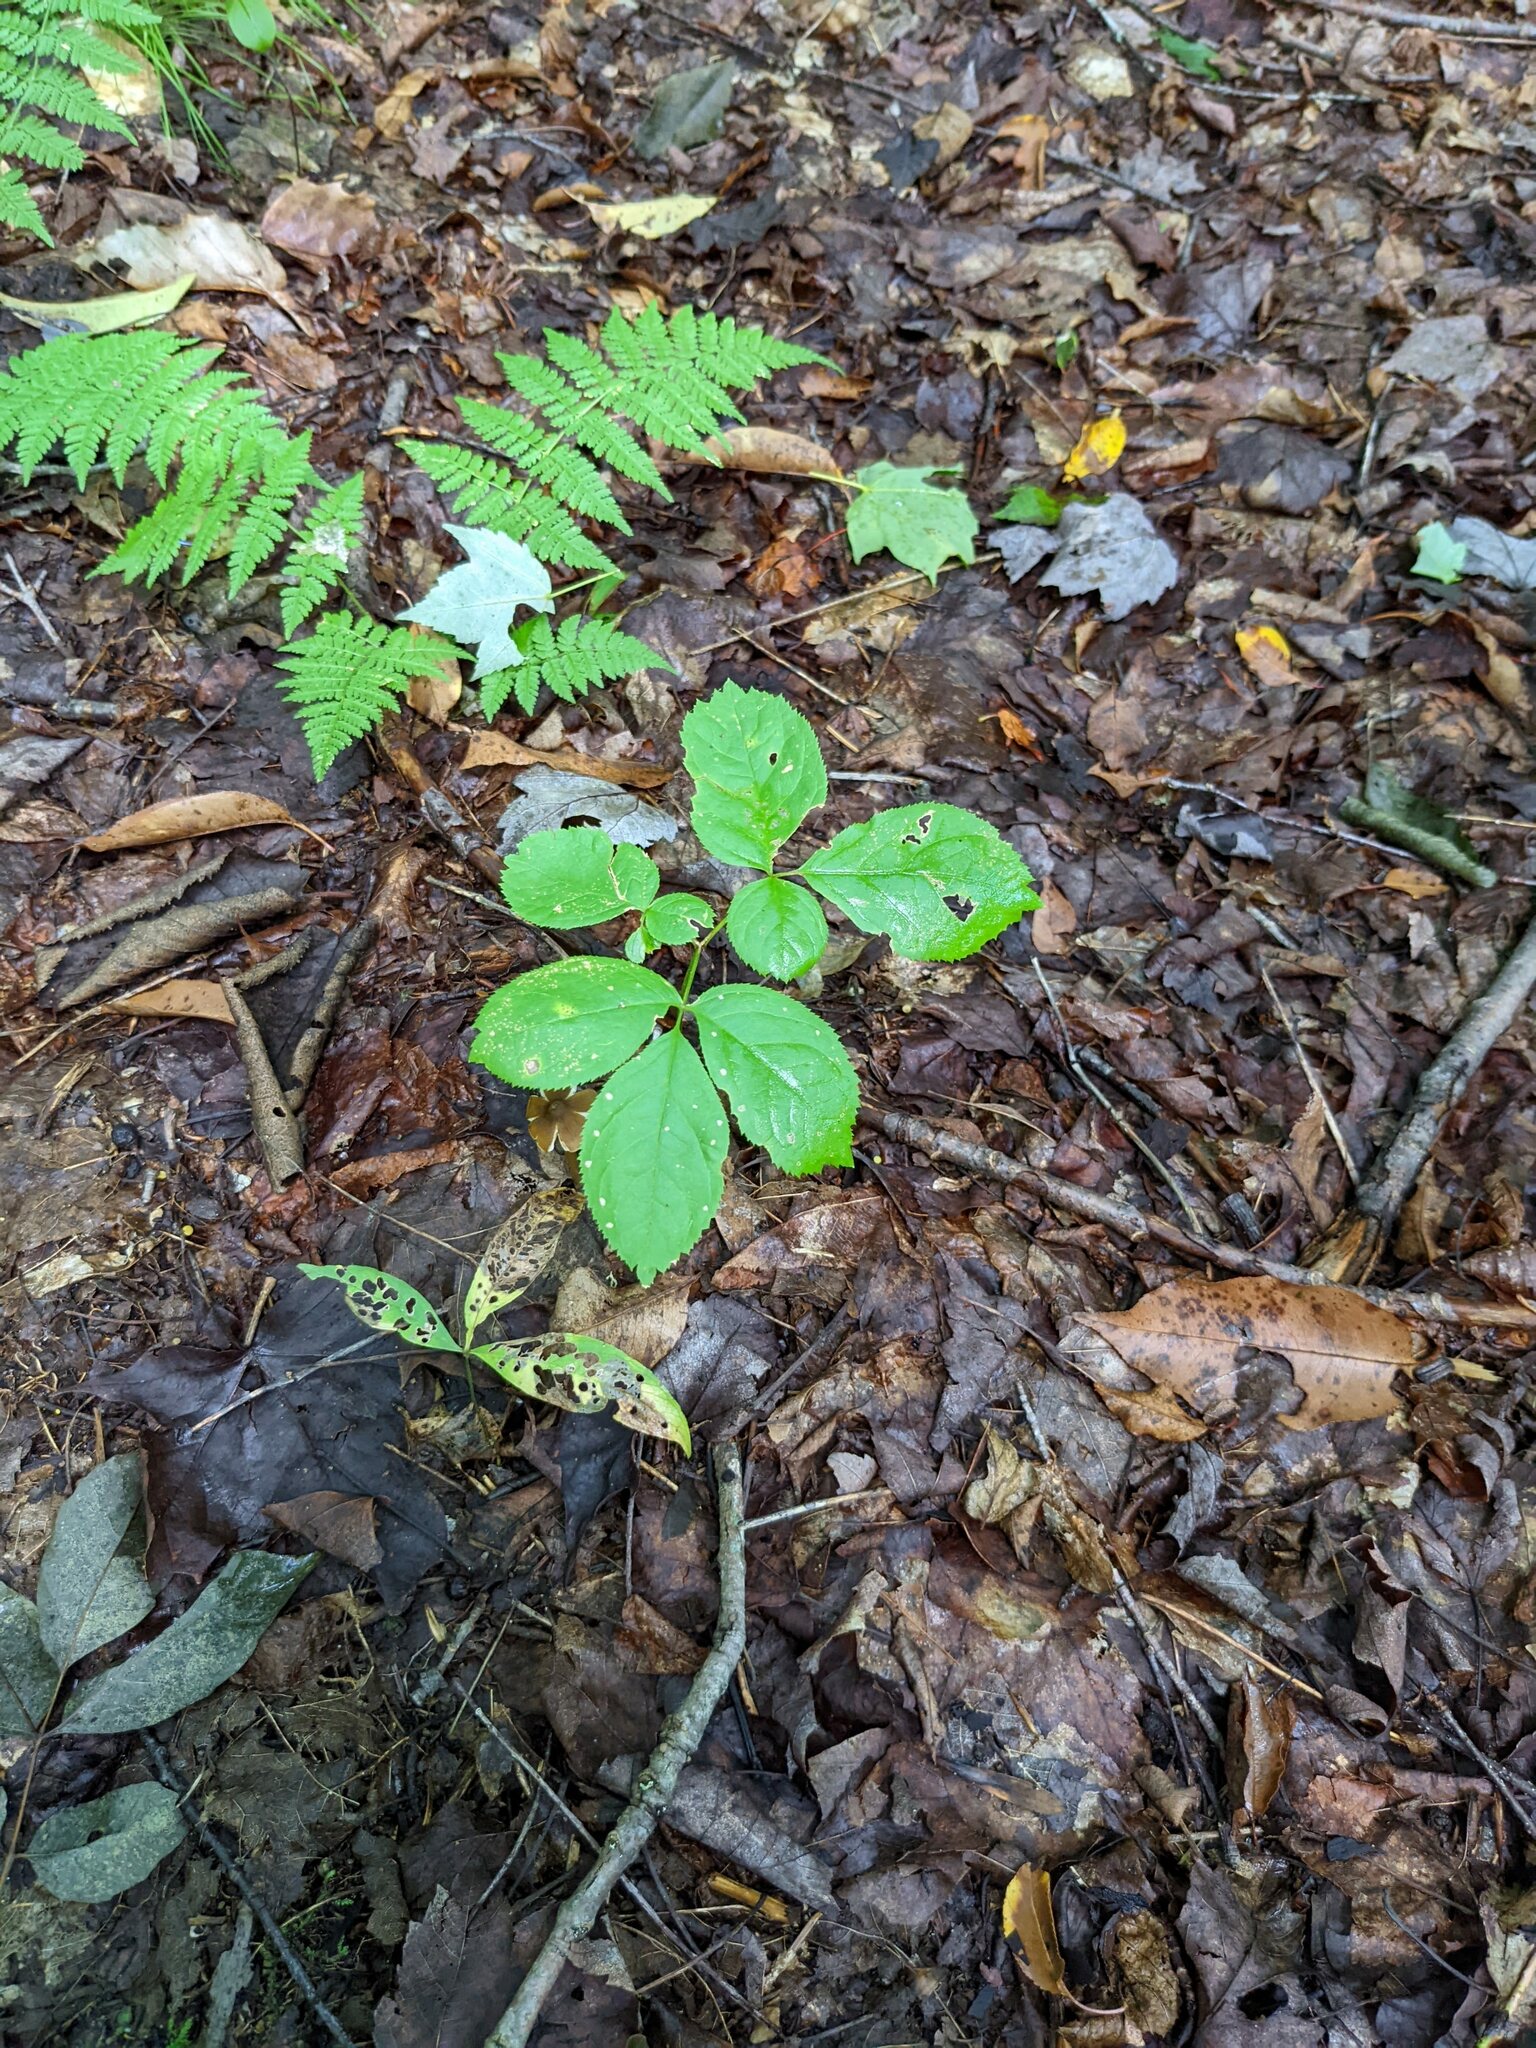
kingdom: Plantae
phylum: Tracheophyta
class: Magnoliopsida
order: Apiales
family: Araliaceae
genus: Aralia
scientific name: Aralia nudicaulis
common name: Wild sarsaparilla
